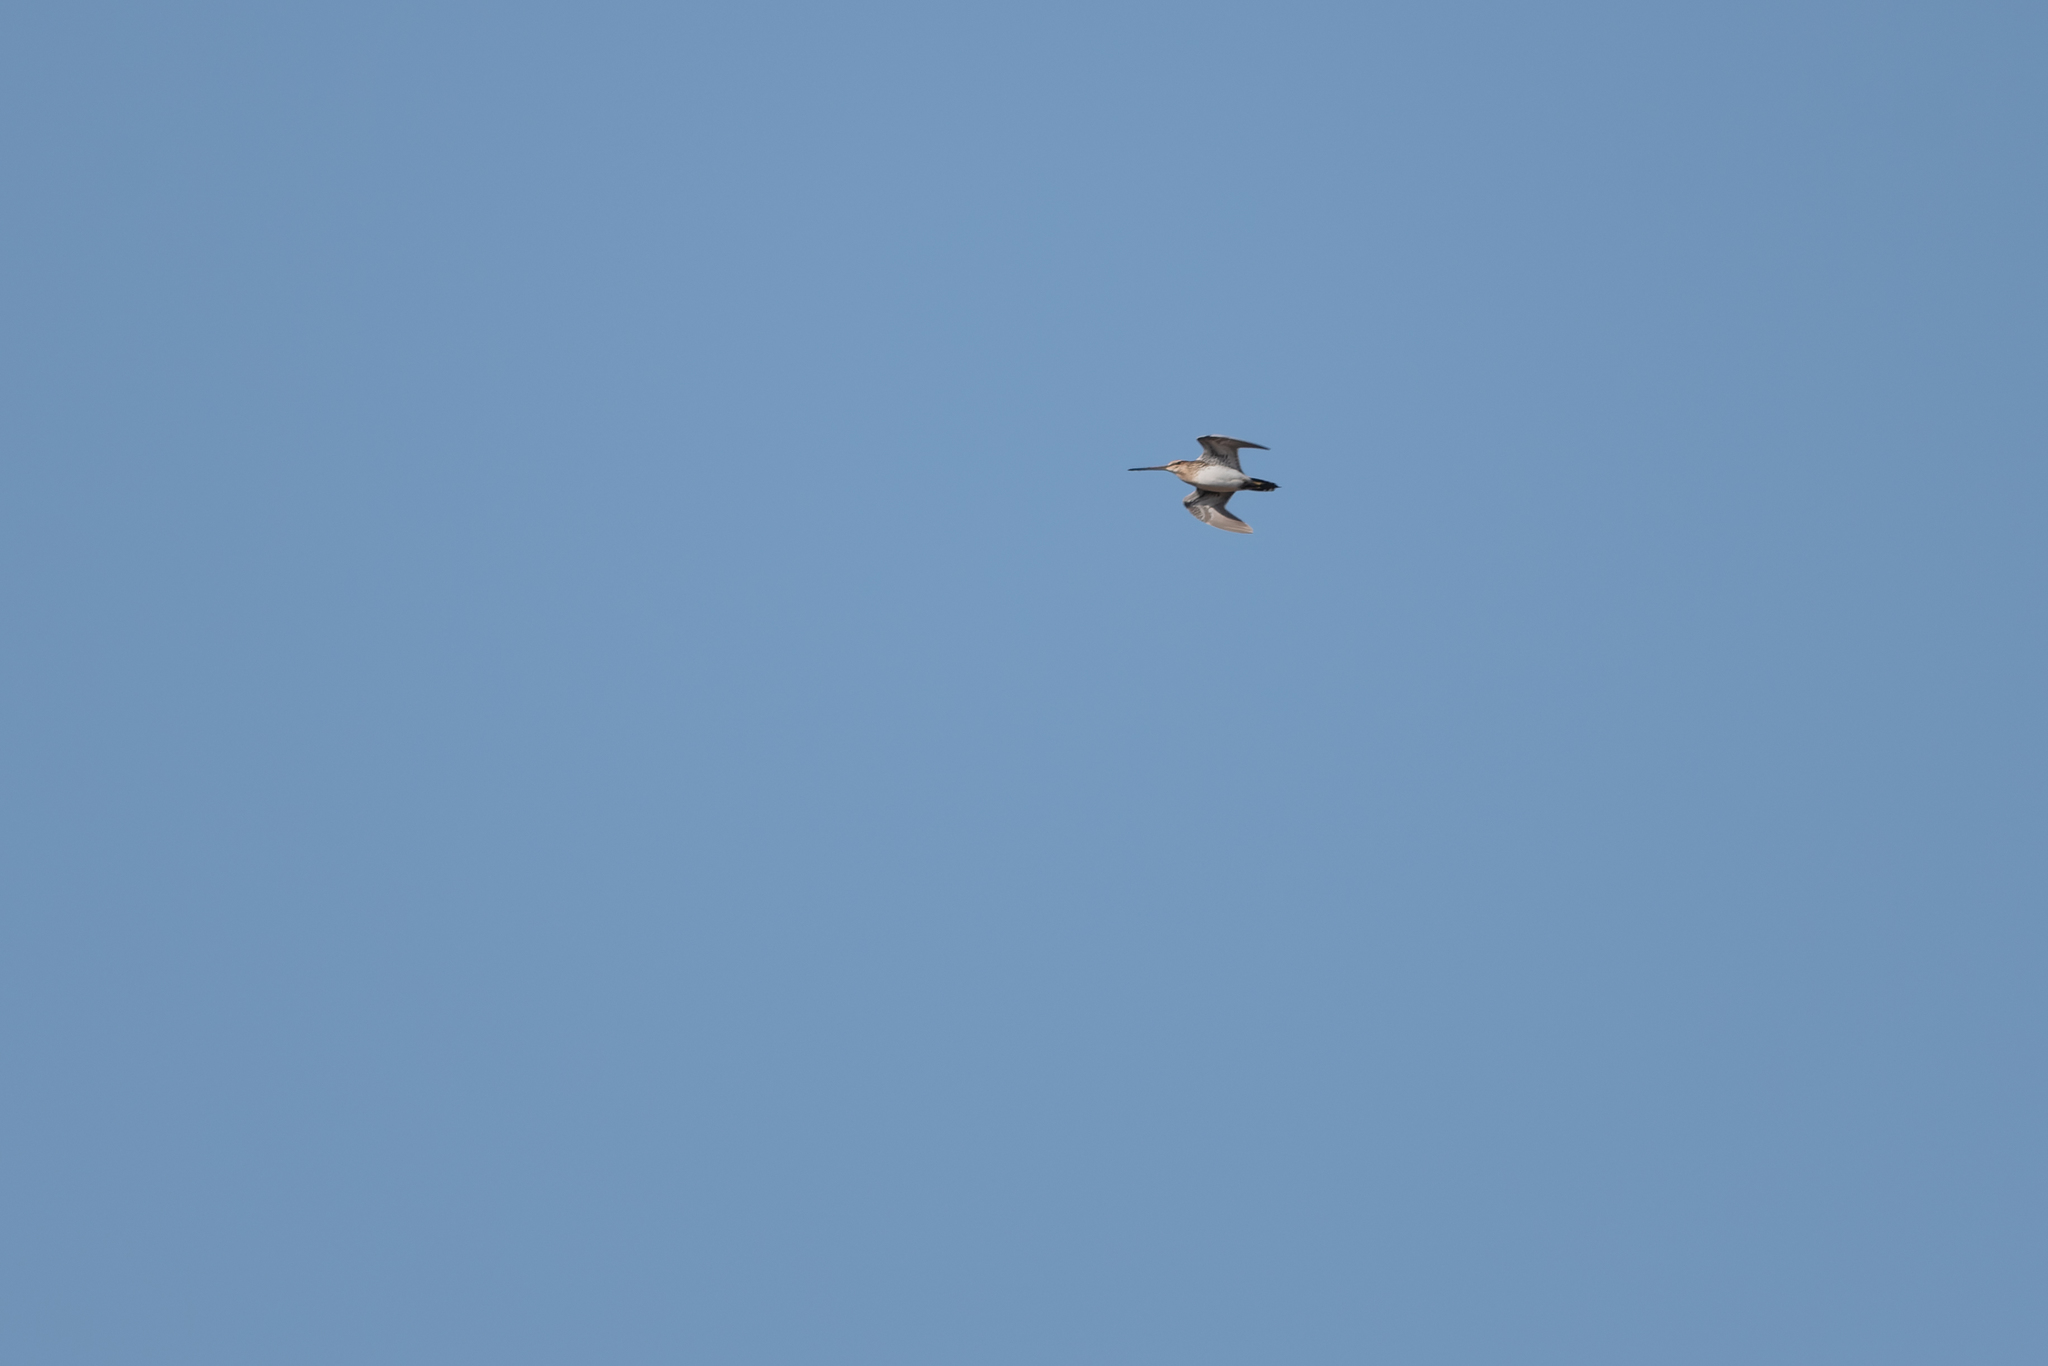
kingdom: Animalia
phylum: Chordata
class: Aves
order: Charadriiformes
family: Scolopacidae
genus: Gallinago
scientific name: Gallinago gallinago
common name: Common snipe
